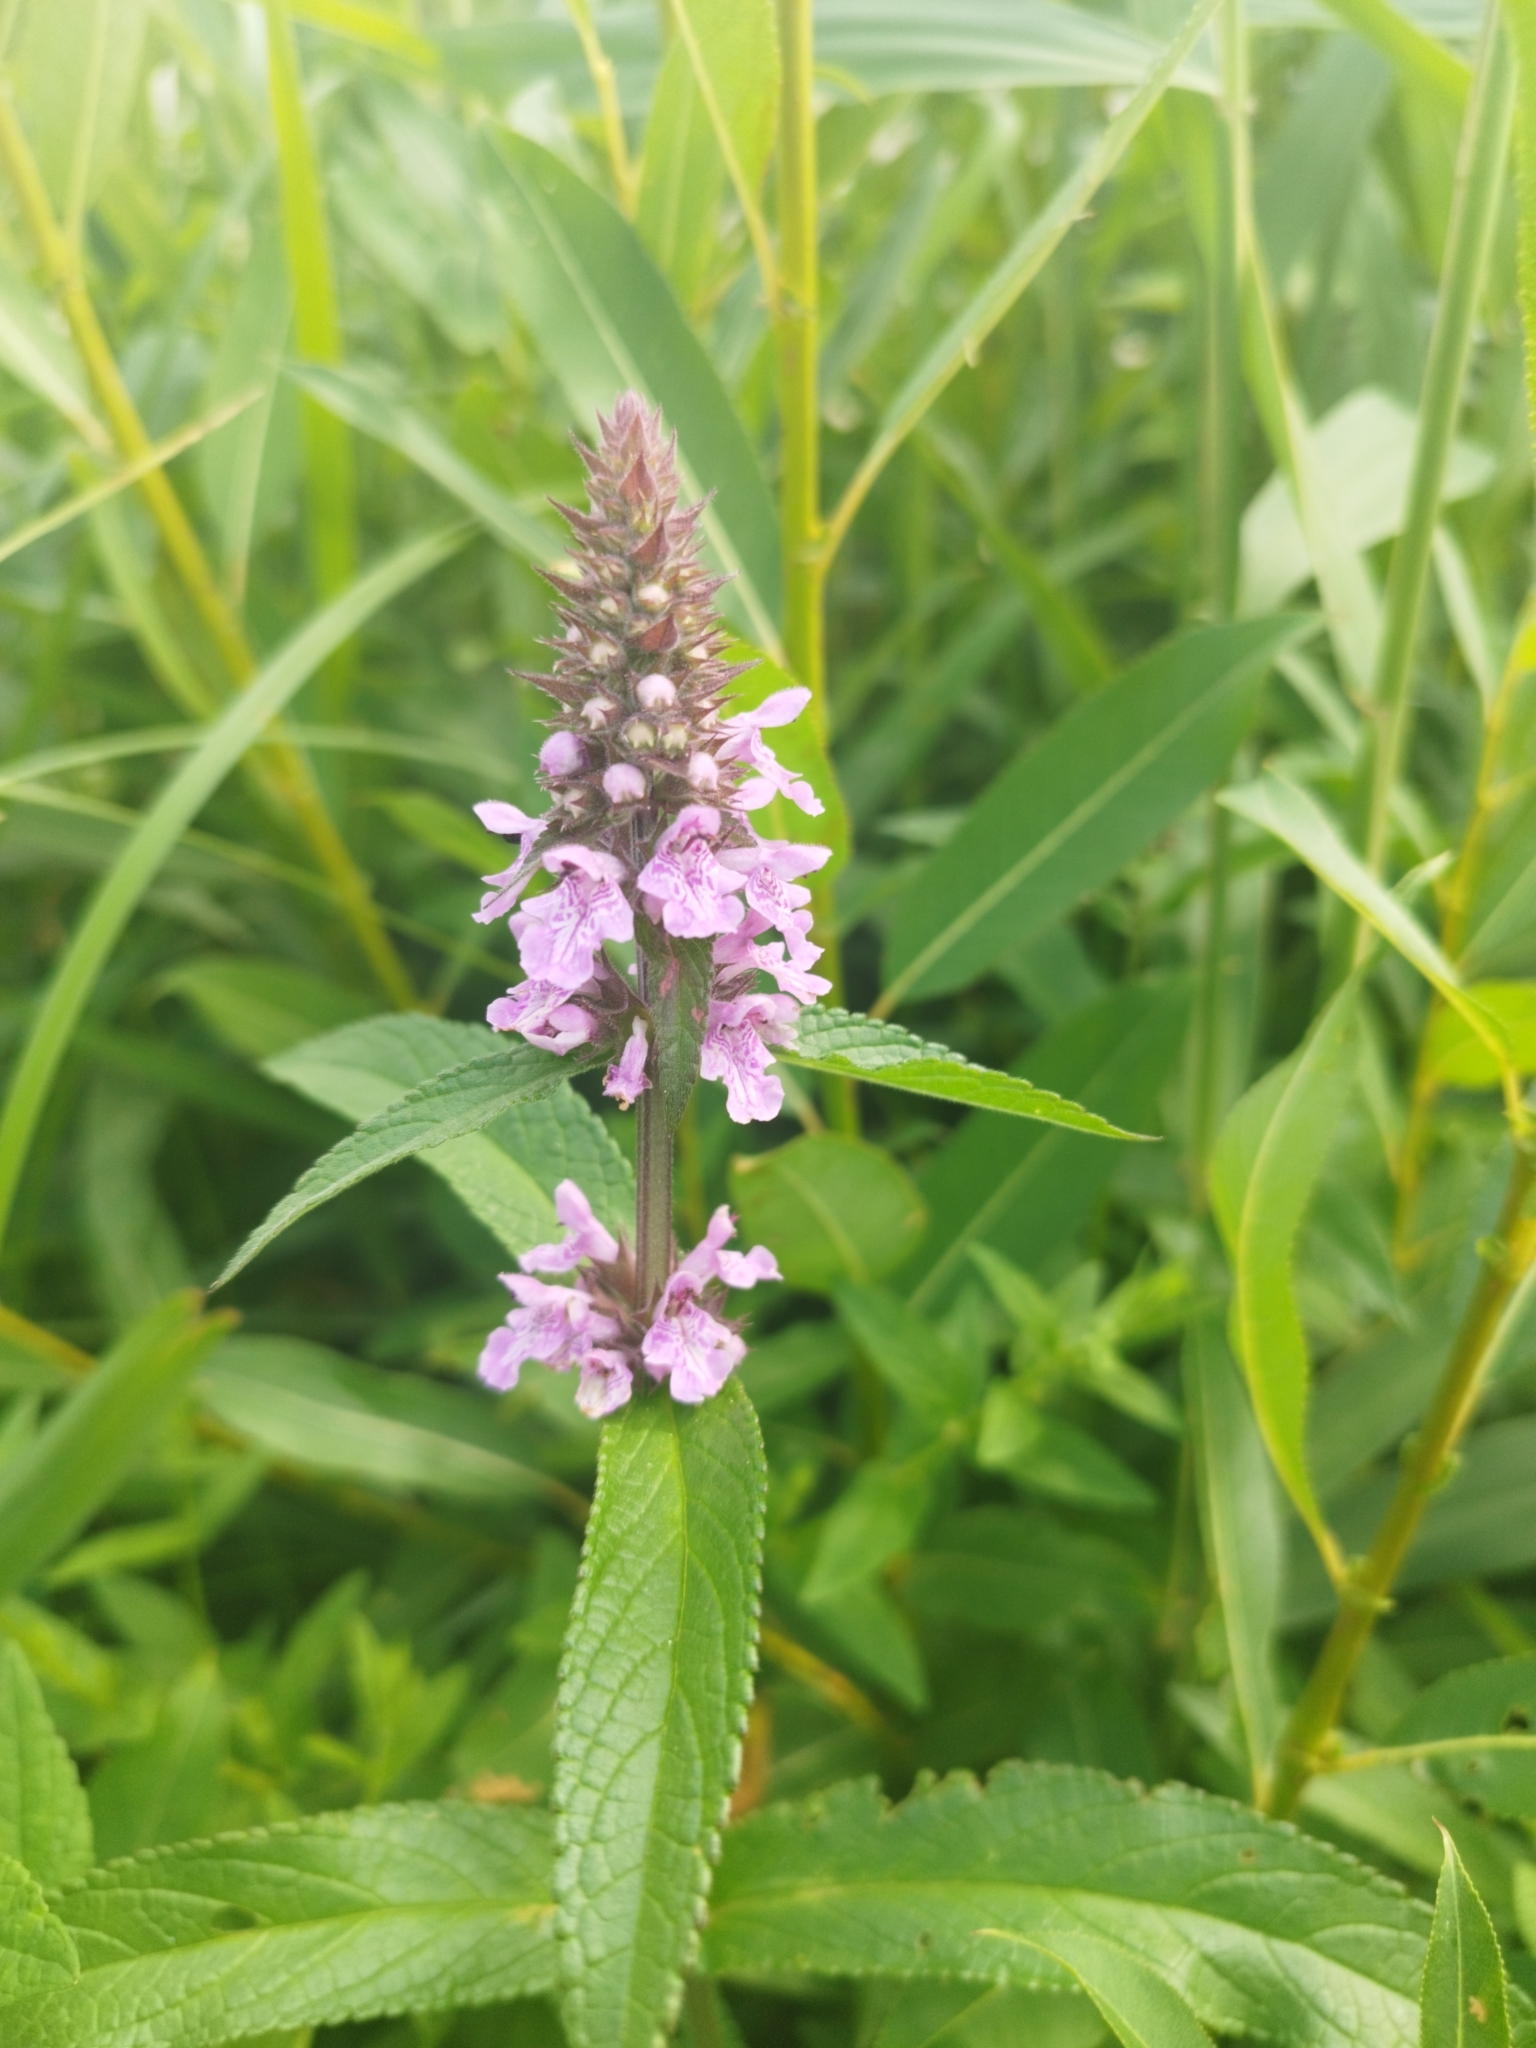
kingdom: Plantae
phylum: Tracheophyta
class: Magnoliopsida
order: Lamiales
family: Lamiaceae
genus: Stachys
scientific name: Stachys palustris
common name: Marsh woundwort
